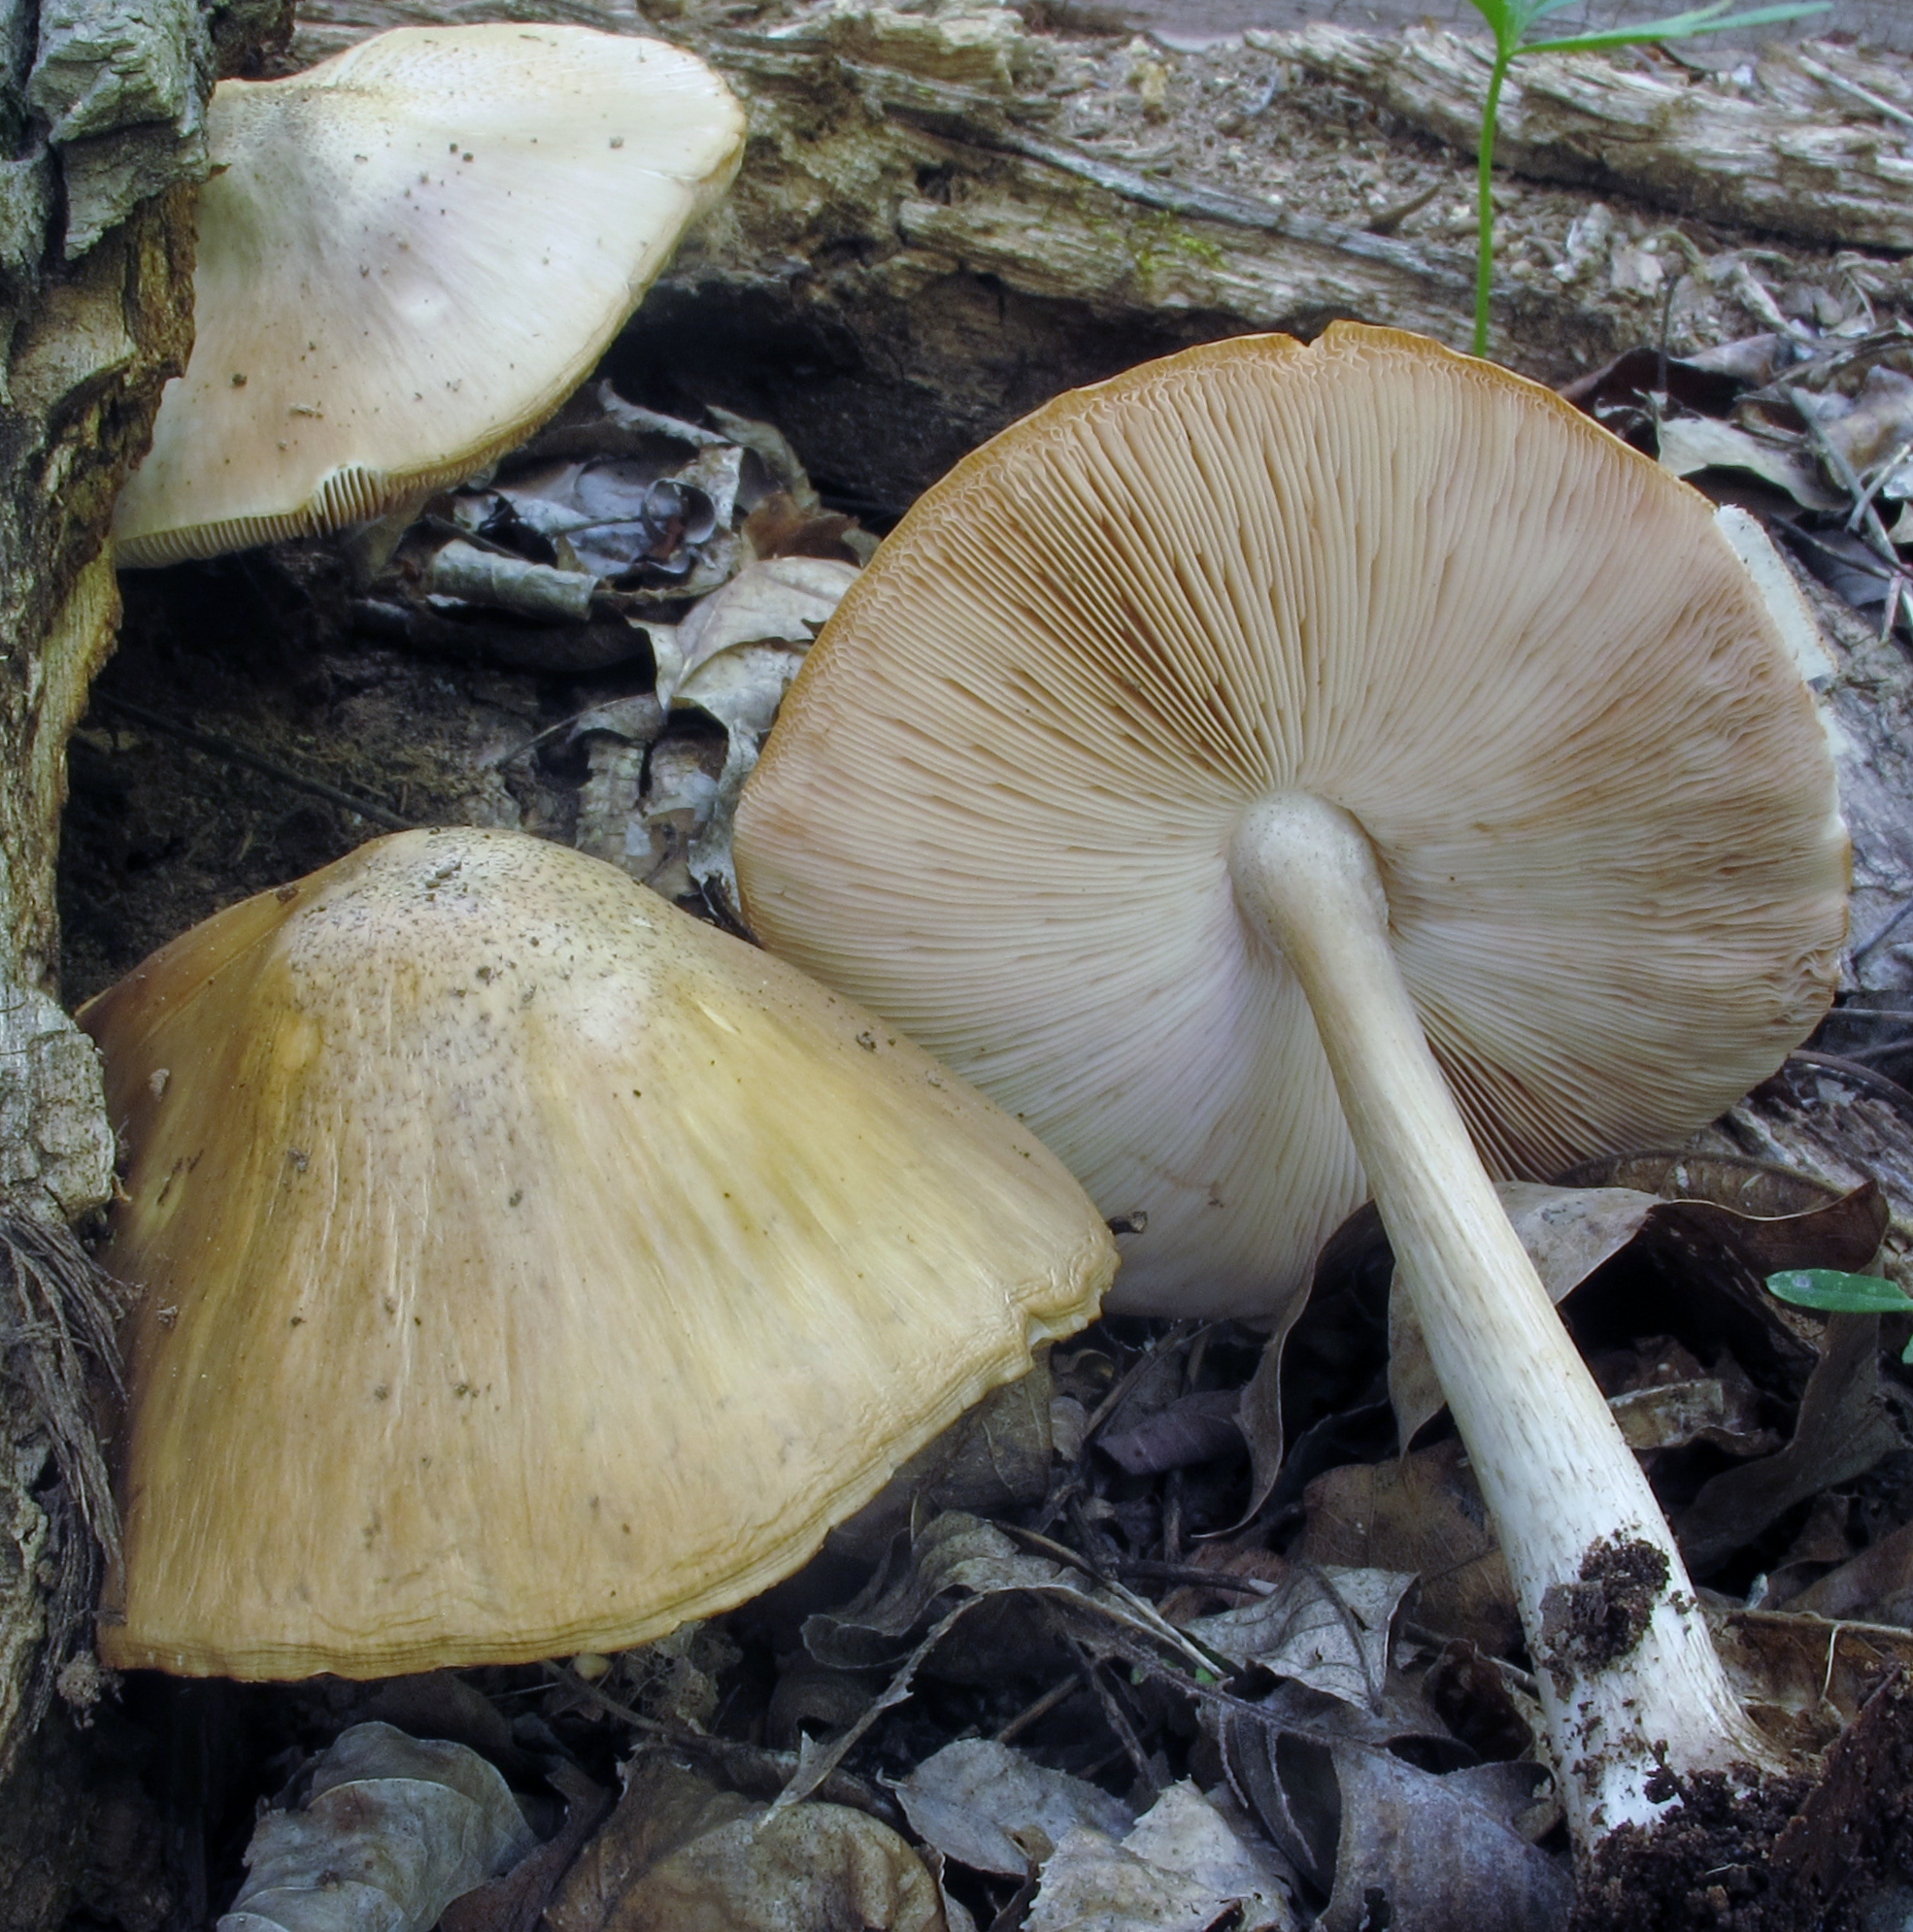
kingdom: Fungi
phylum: Basidiomycota
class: Agaricomycetes
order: Agaricales
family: Pluteaceae
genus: Pluteus
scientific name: Pluteus cervinus
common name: Deer shield
